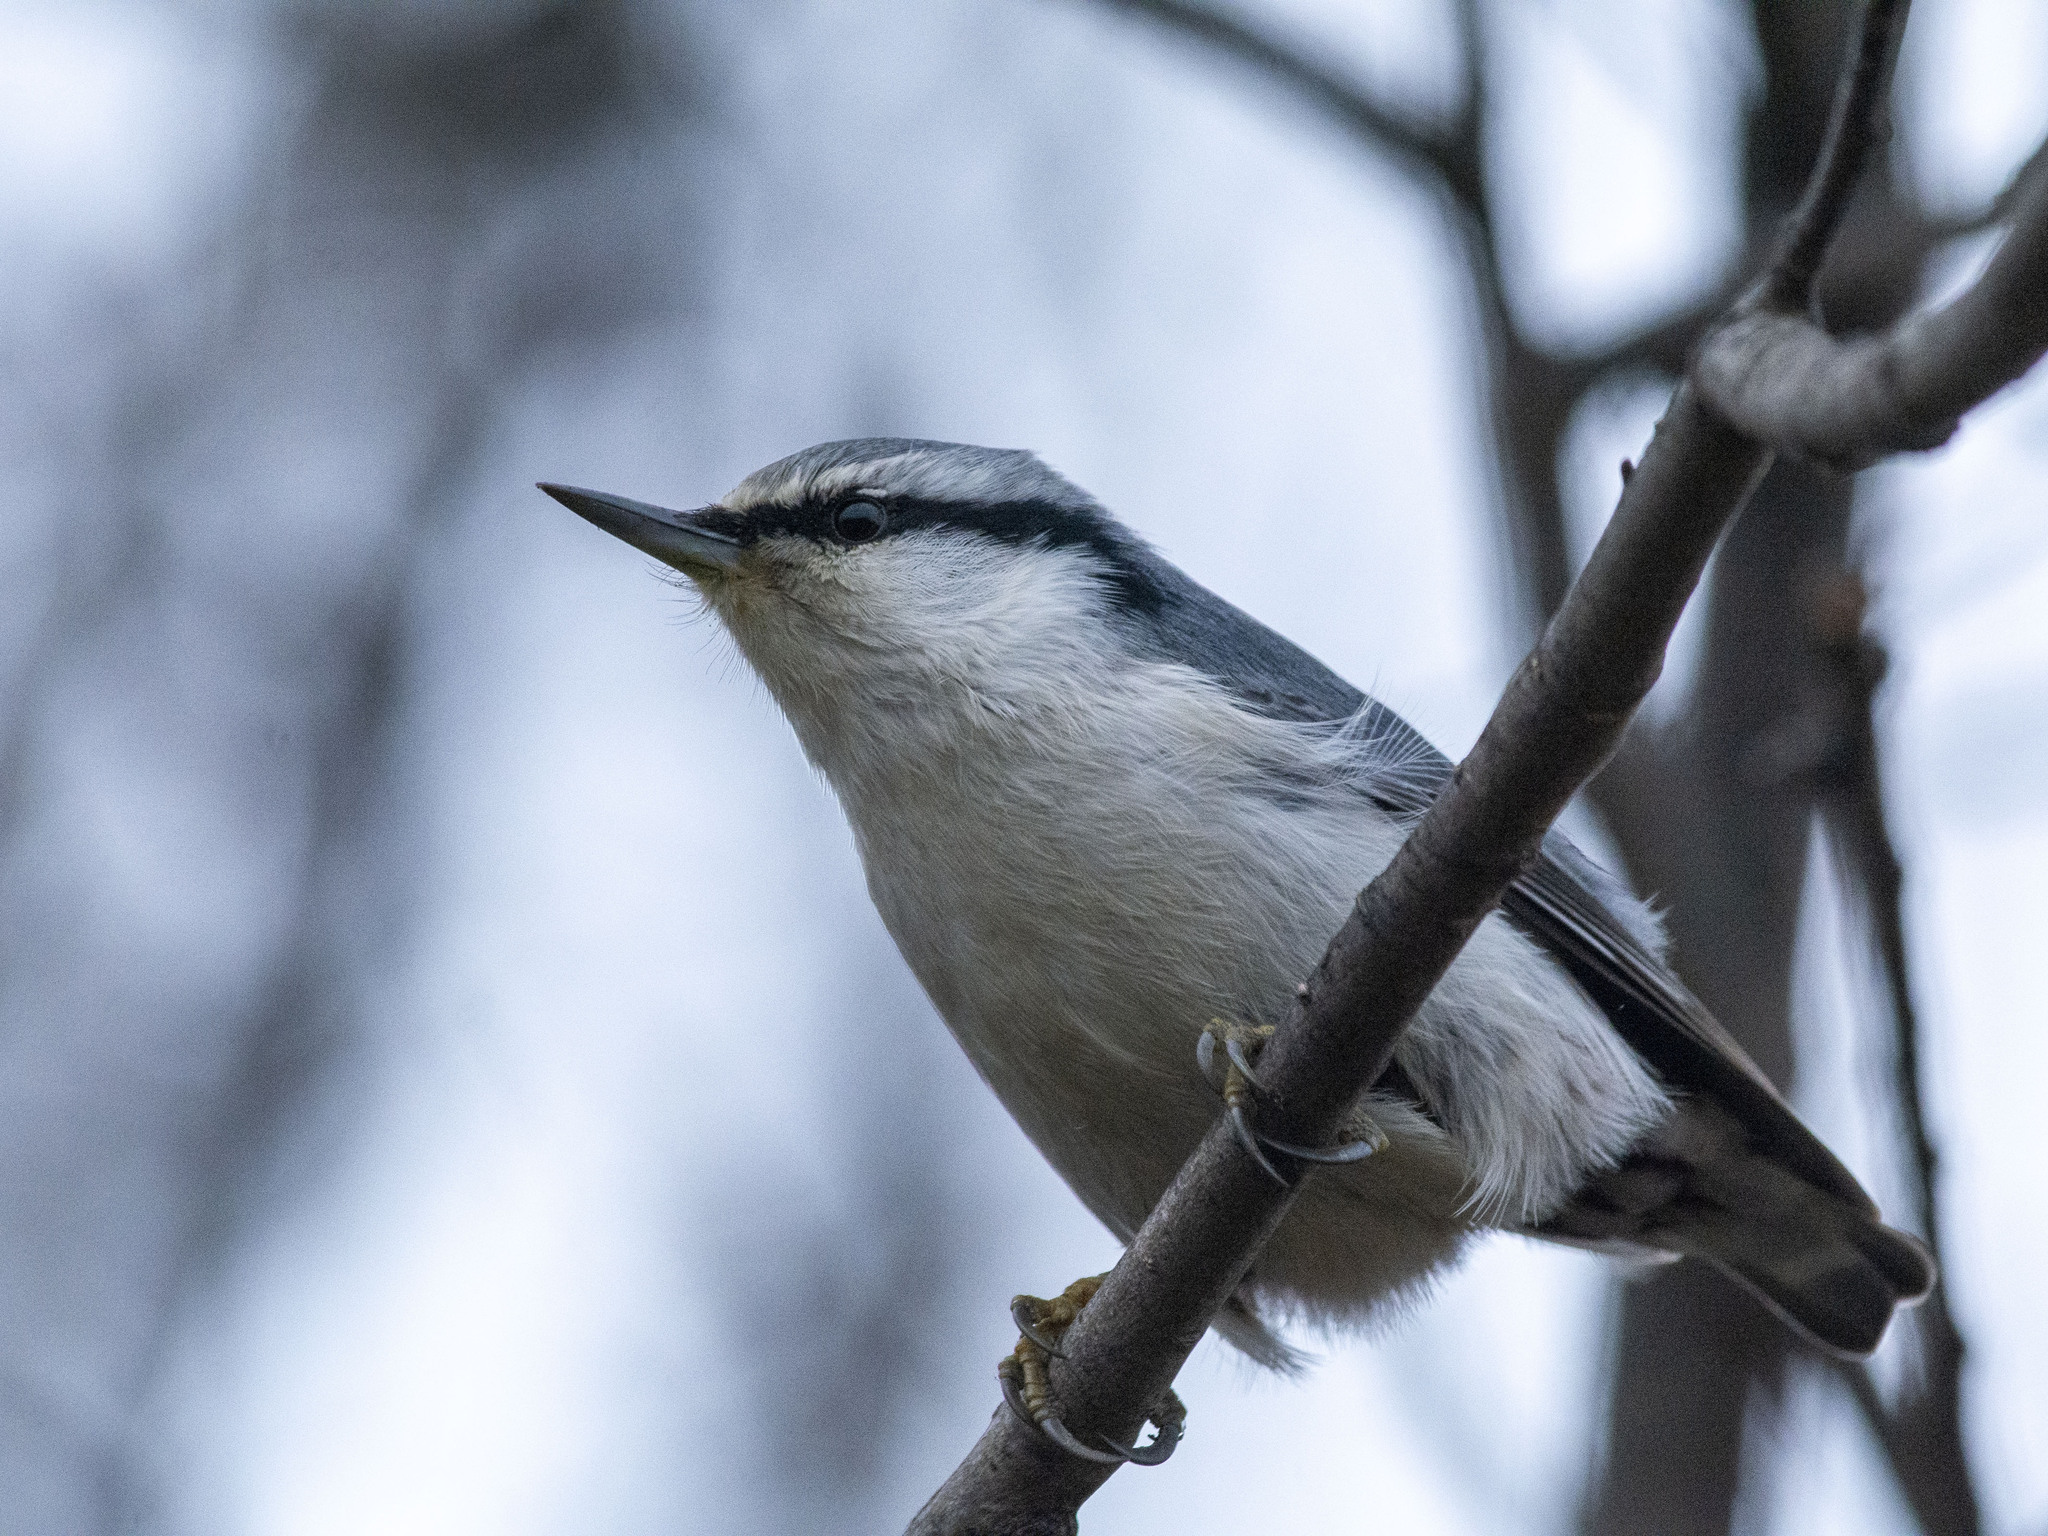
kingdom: Animalia
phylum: Chordata
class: Aves
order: Passeriformes
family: Sittidae
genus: Sitta
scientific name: Sitta europaea
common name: Eurasian nuthatch
